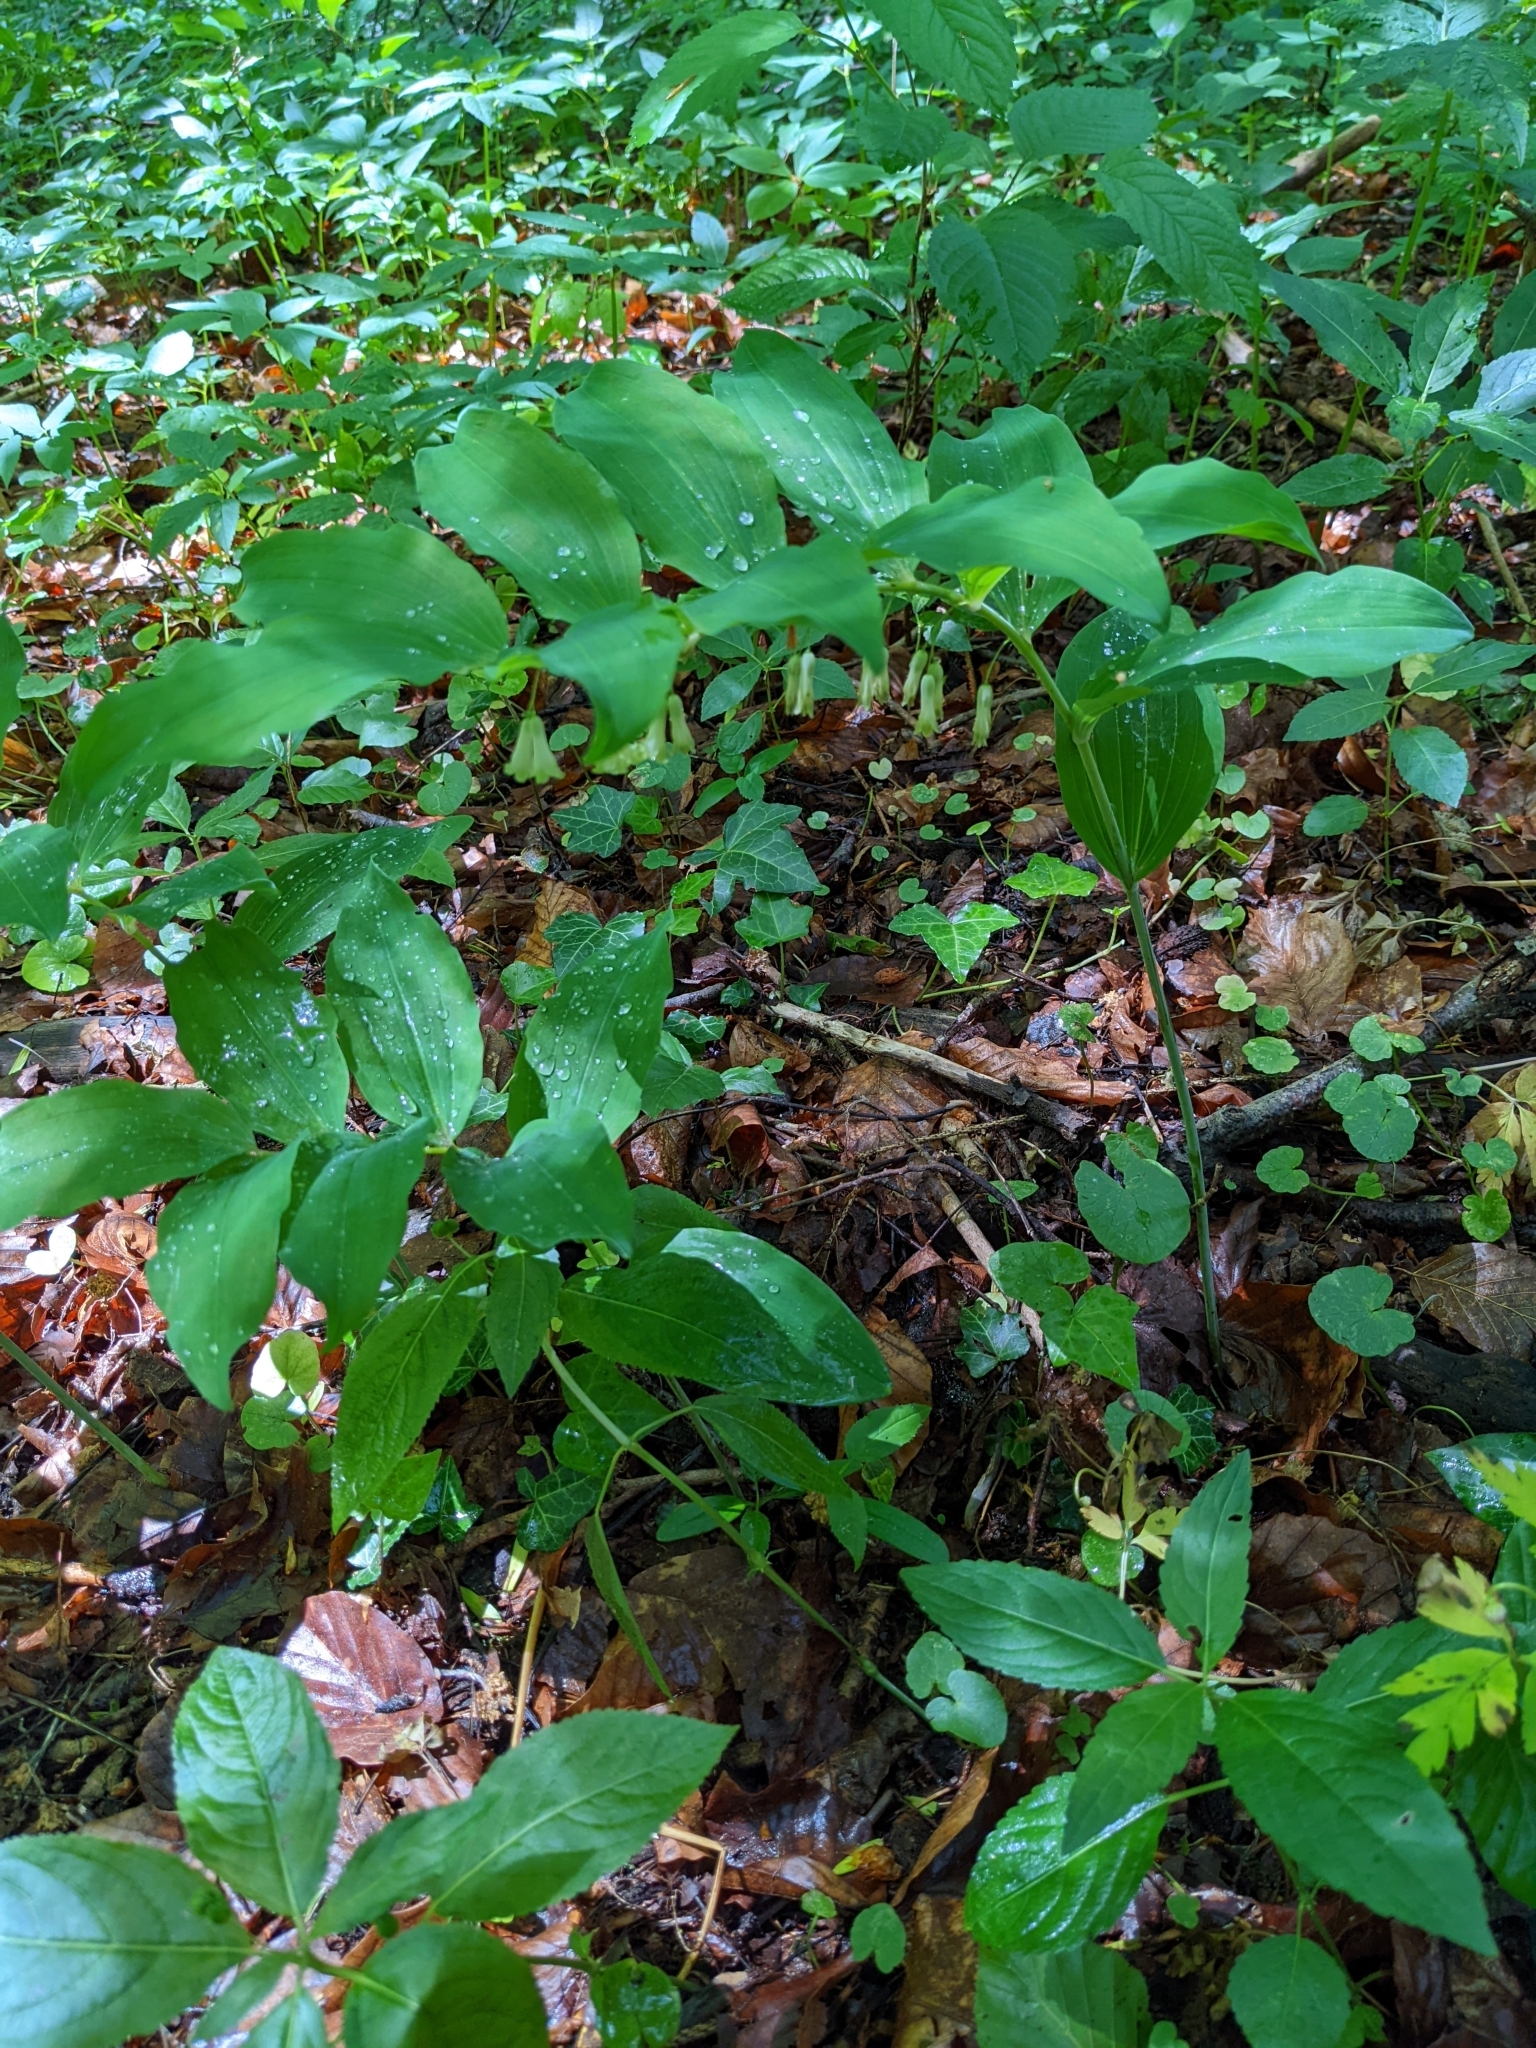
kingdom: Plantae
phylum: Tracheophyta
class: Liliopsida
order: Asparagales
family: Asparagaceae
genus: Polygonatum
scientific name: Polygonatum multiflorum
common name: Solomon's-seal
